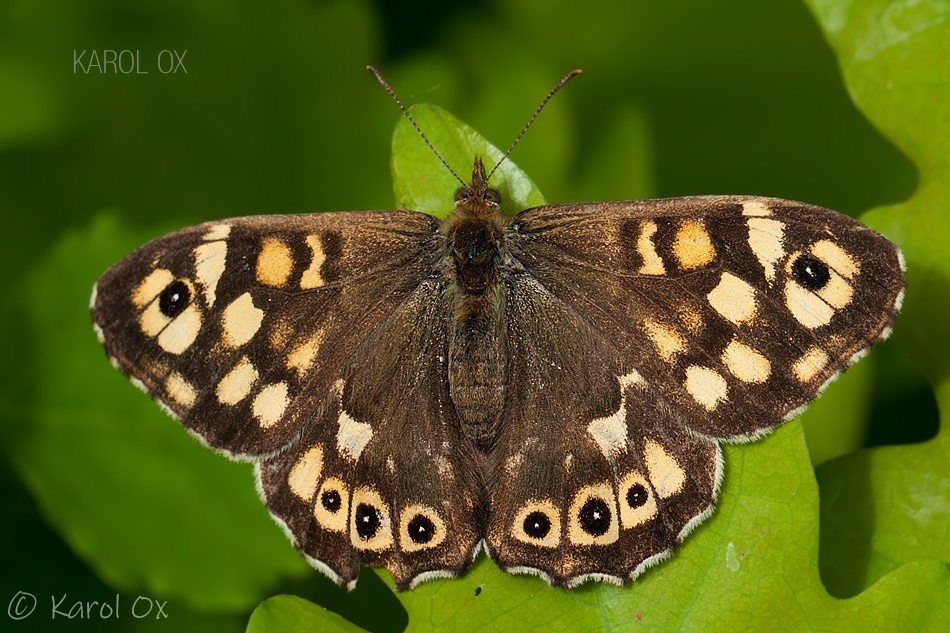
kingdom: Animalia
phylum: Arthropoda
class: Insecta
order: Lepidoptera
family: Nymphalidae
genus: Pararge
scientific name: Pararge aegeria
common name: Speckled wood
